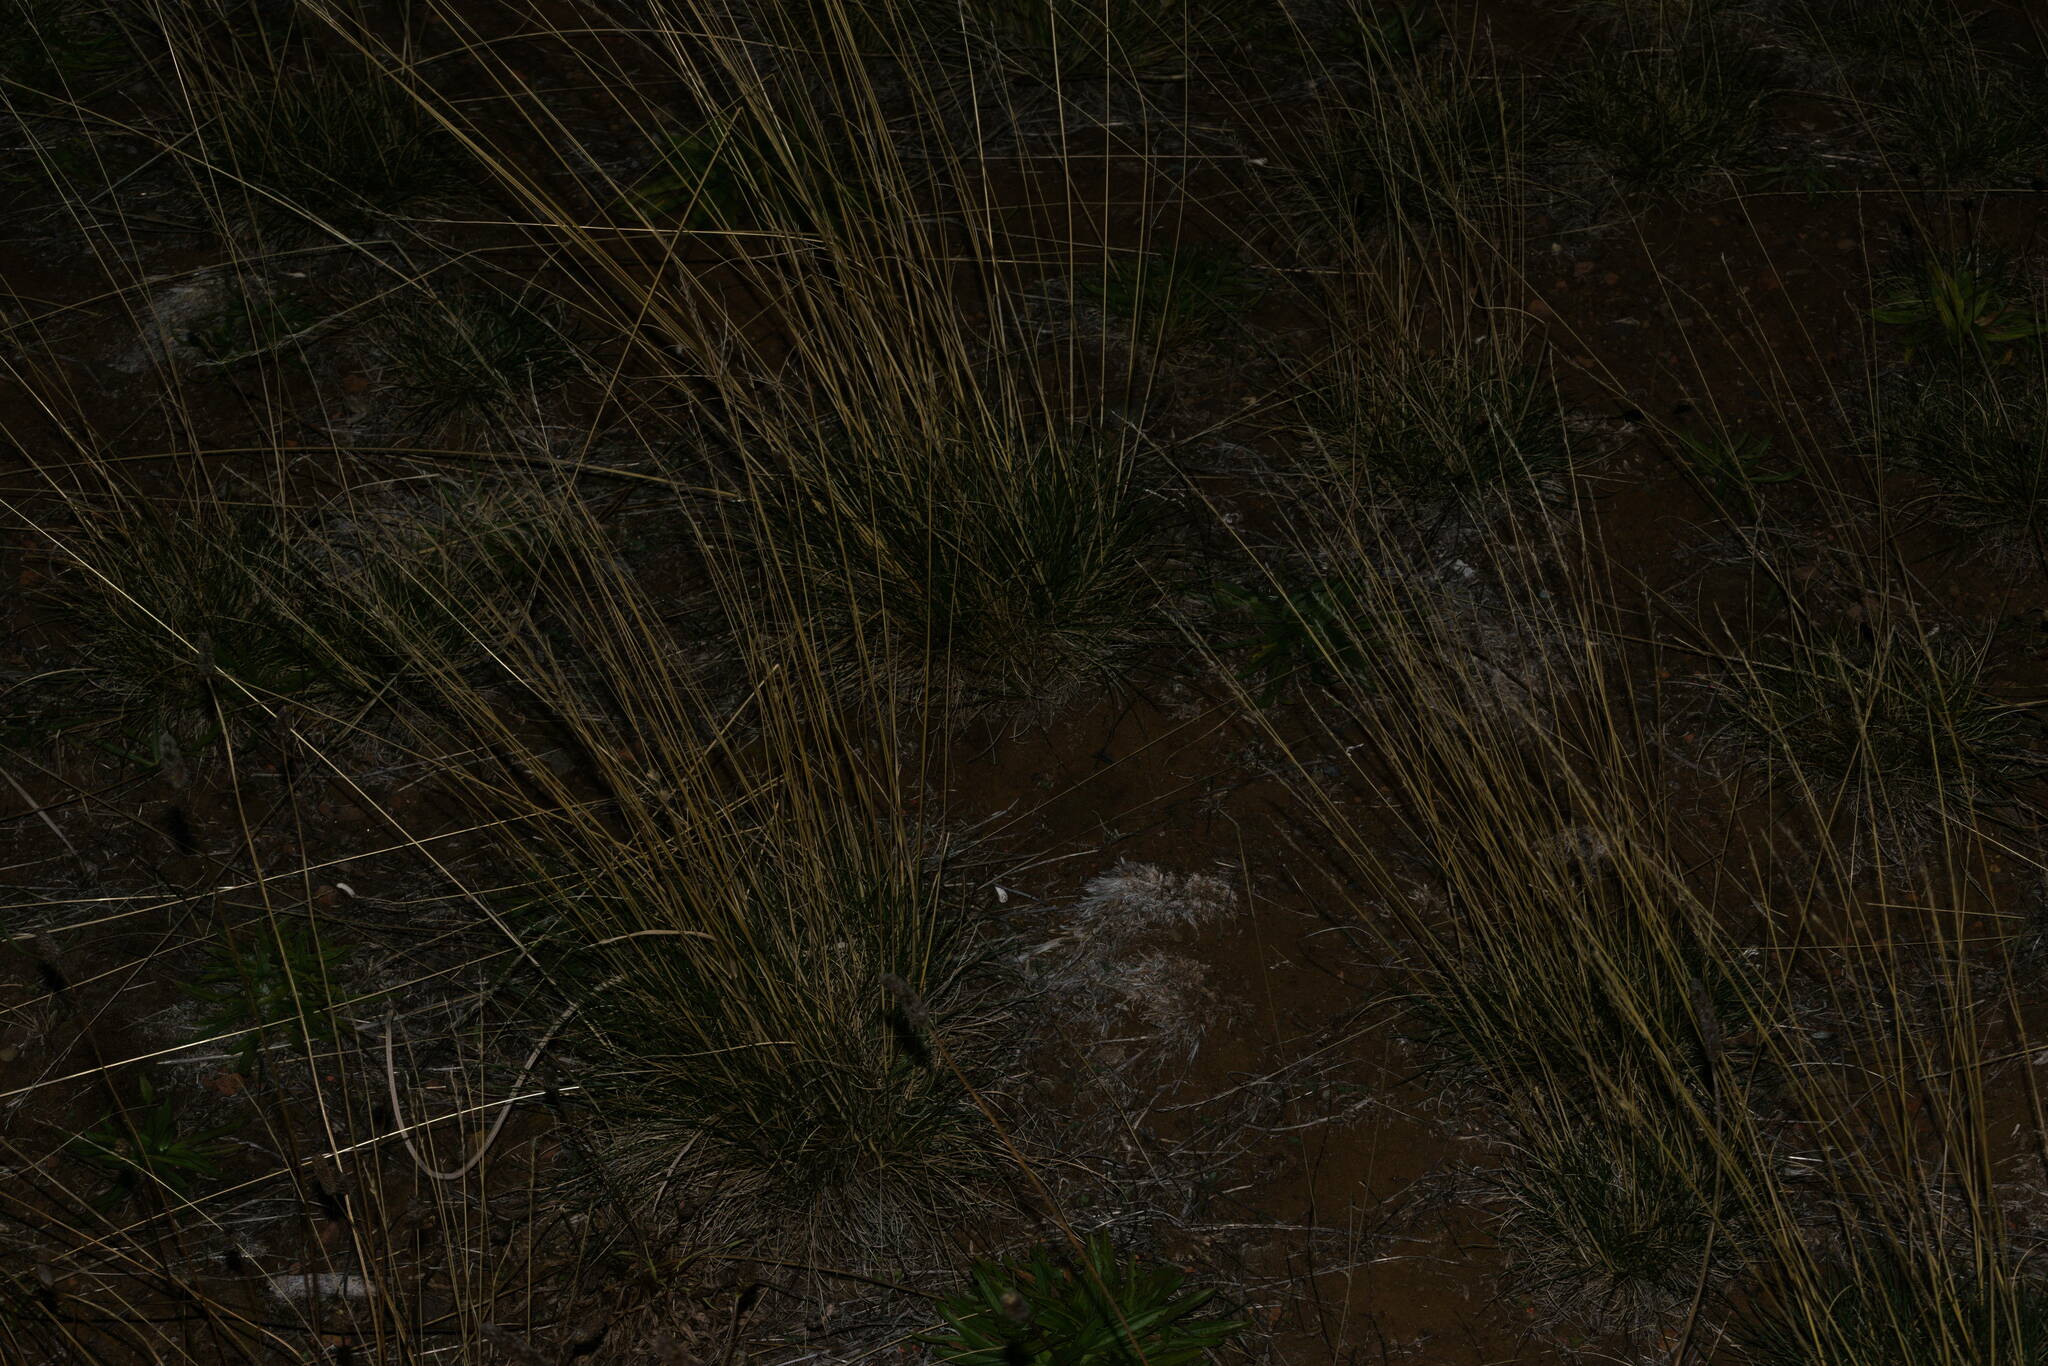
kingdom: Plantae
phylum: Tracheophyta
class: Liliopsida
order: Poales
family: Poaceae
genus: Festuca
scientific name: Festuca rubra
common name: Red fescue
